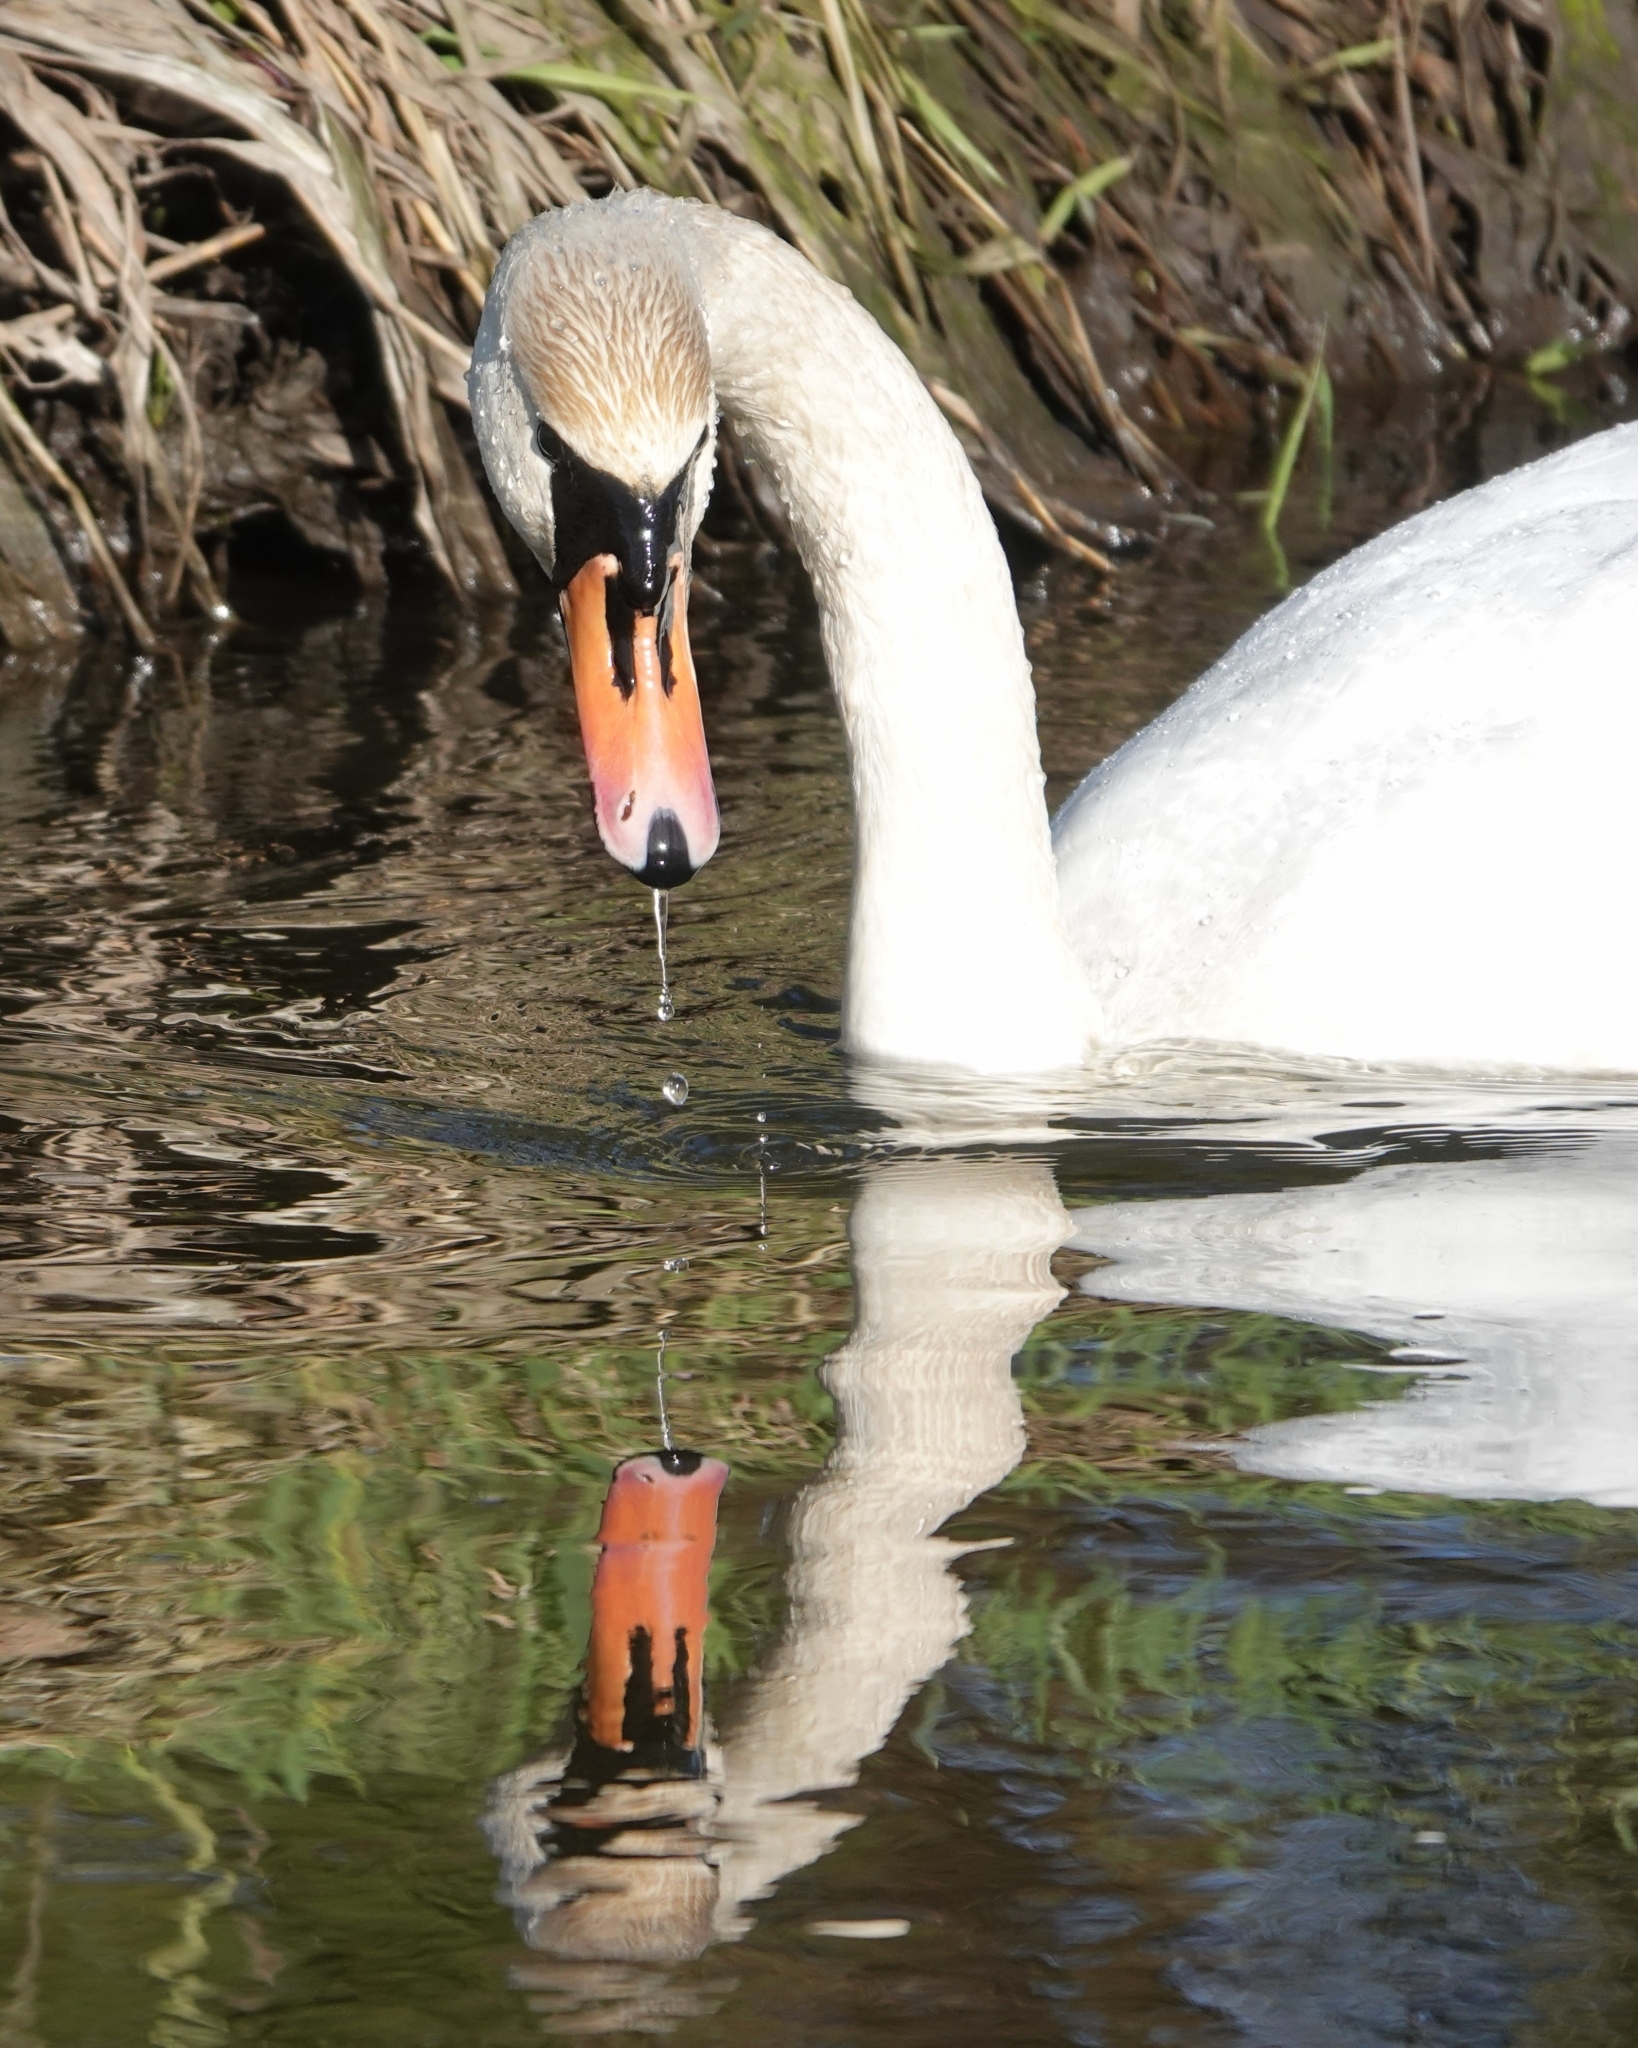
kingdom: Animalia
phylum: Chordata
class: Aves
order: Anseriformes
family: Anatidae
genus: Cygnus
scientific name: Cygnus olor
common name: Mute swan
